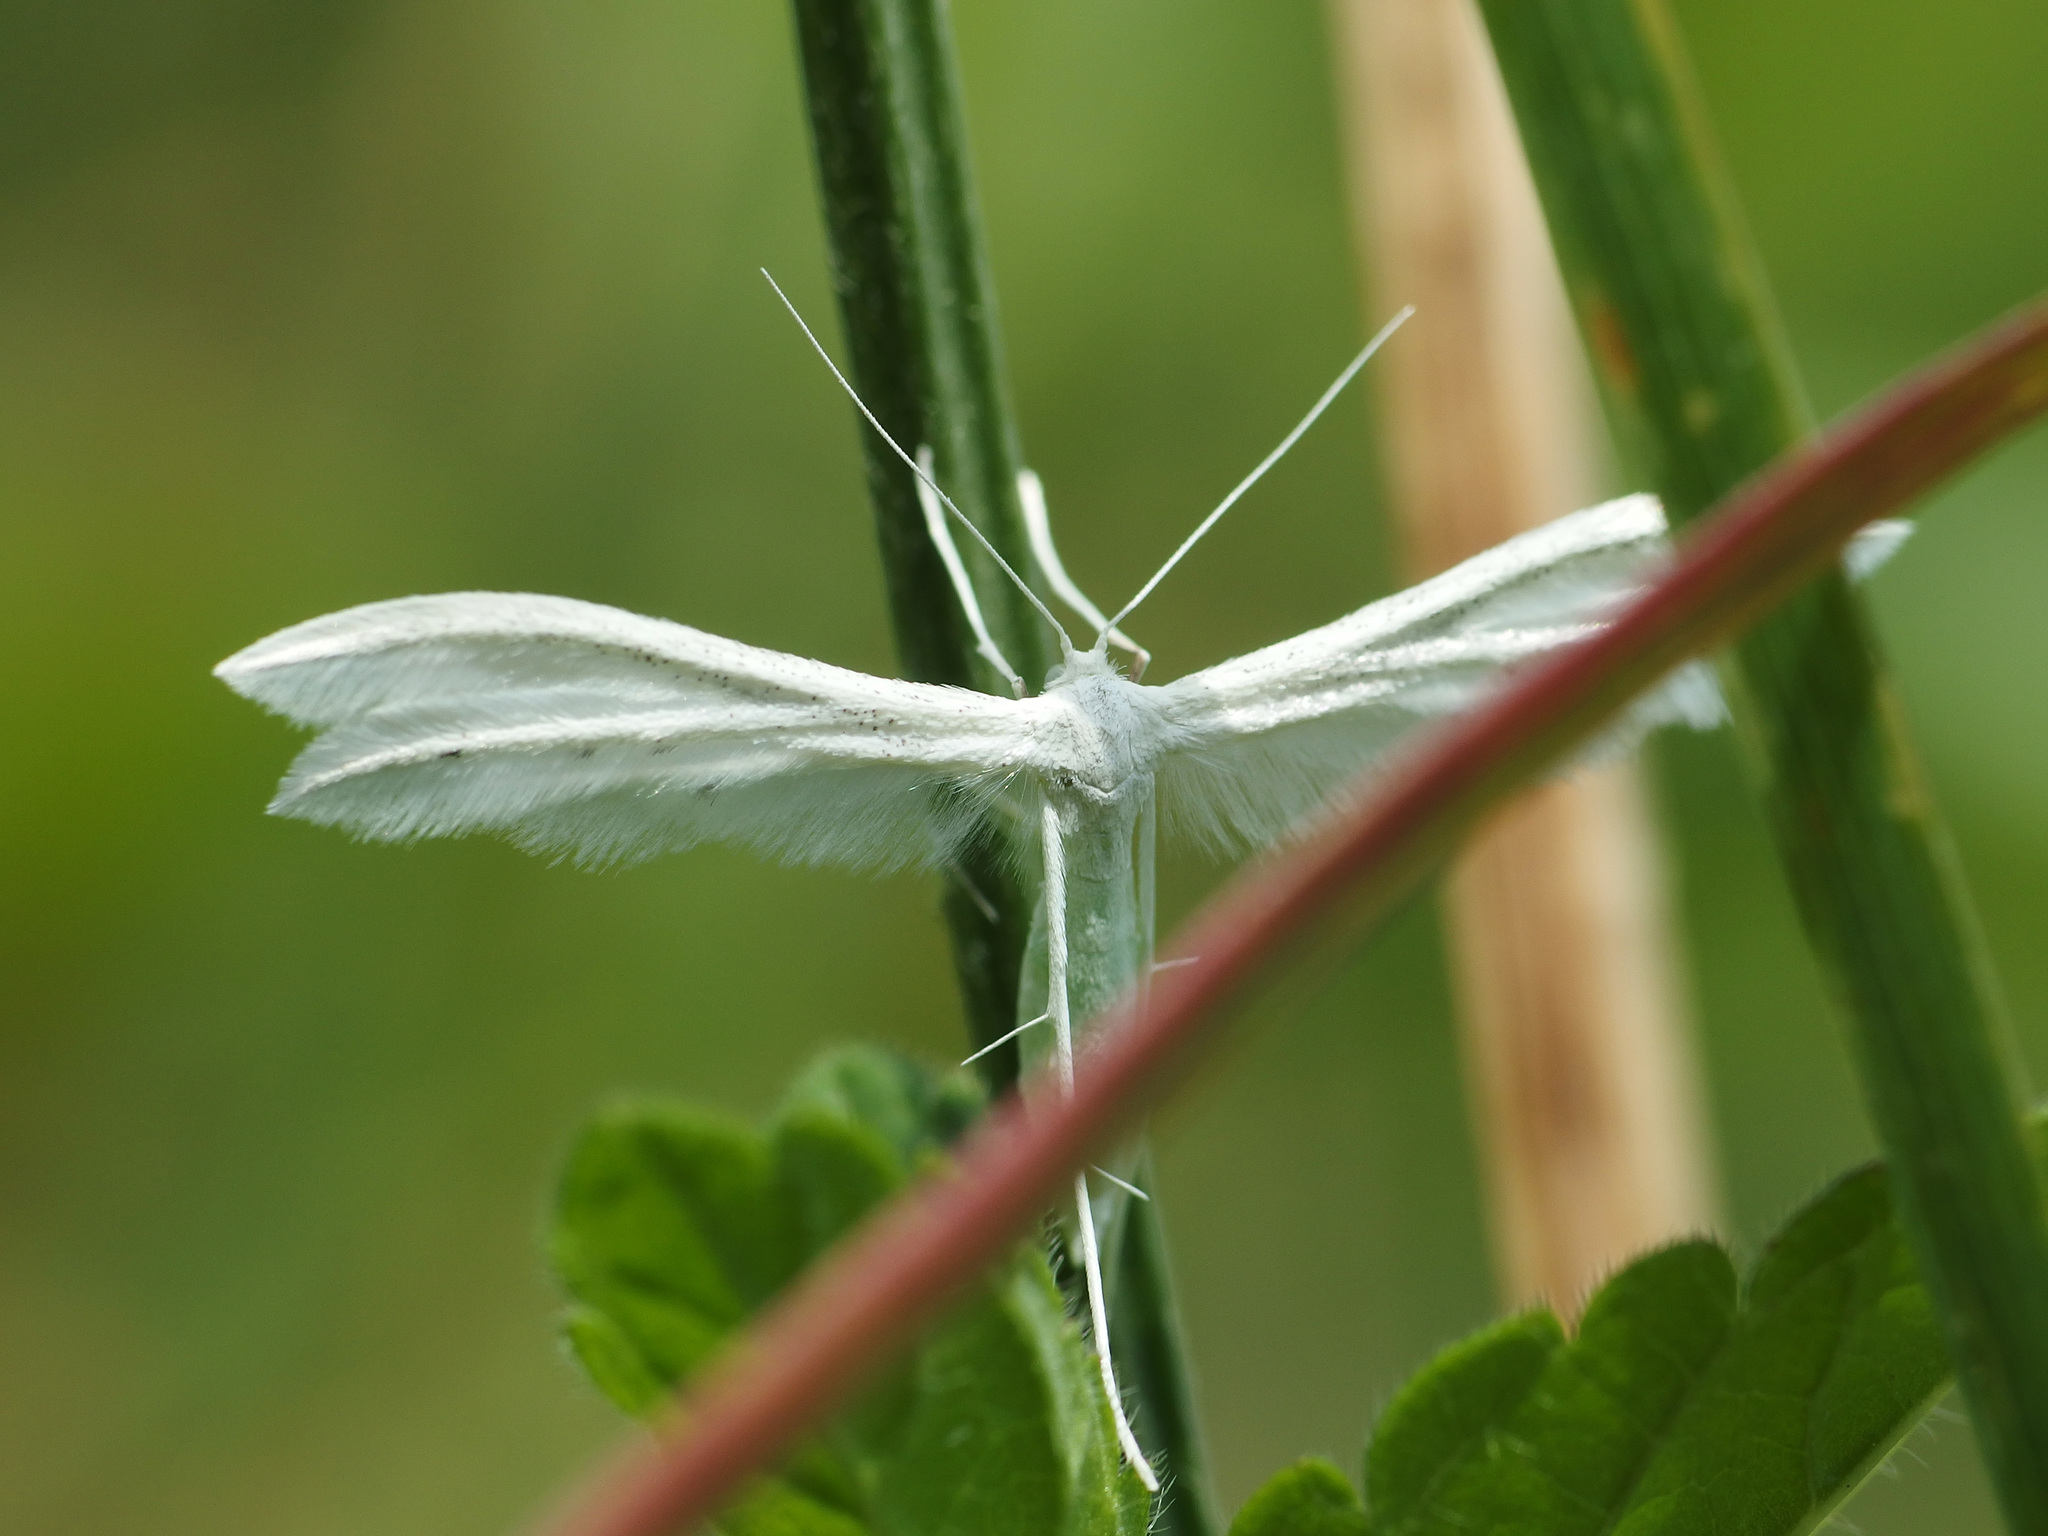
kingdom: Animalia
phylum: Arthropoda
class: Insecta
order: Lepidoptera
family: Pterophoridae
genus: Pterophorus
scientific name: Pterophorus pentadactyla
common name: White plume moth
